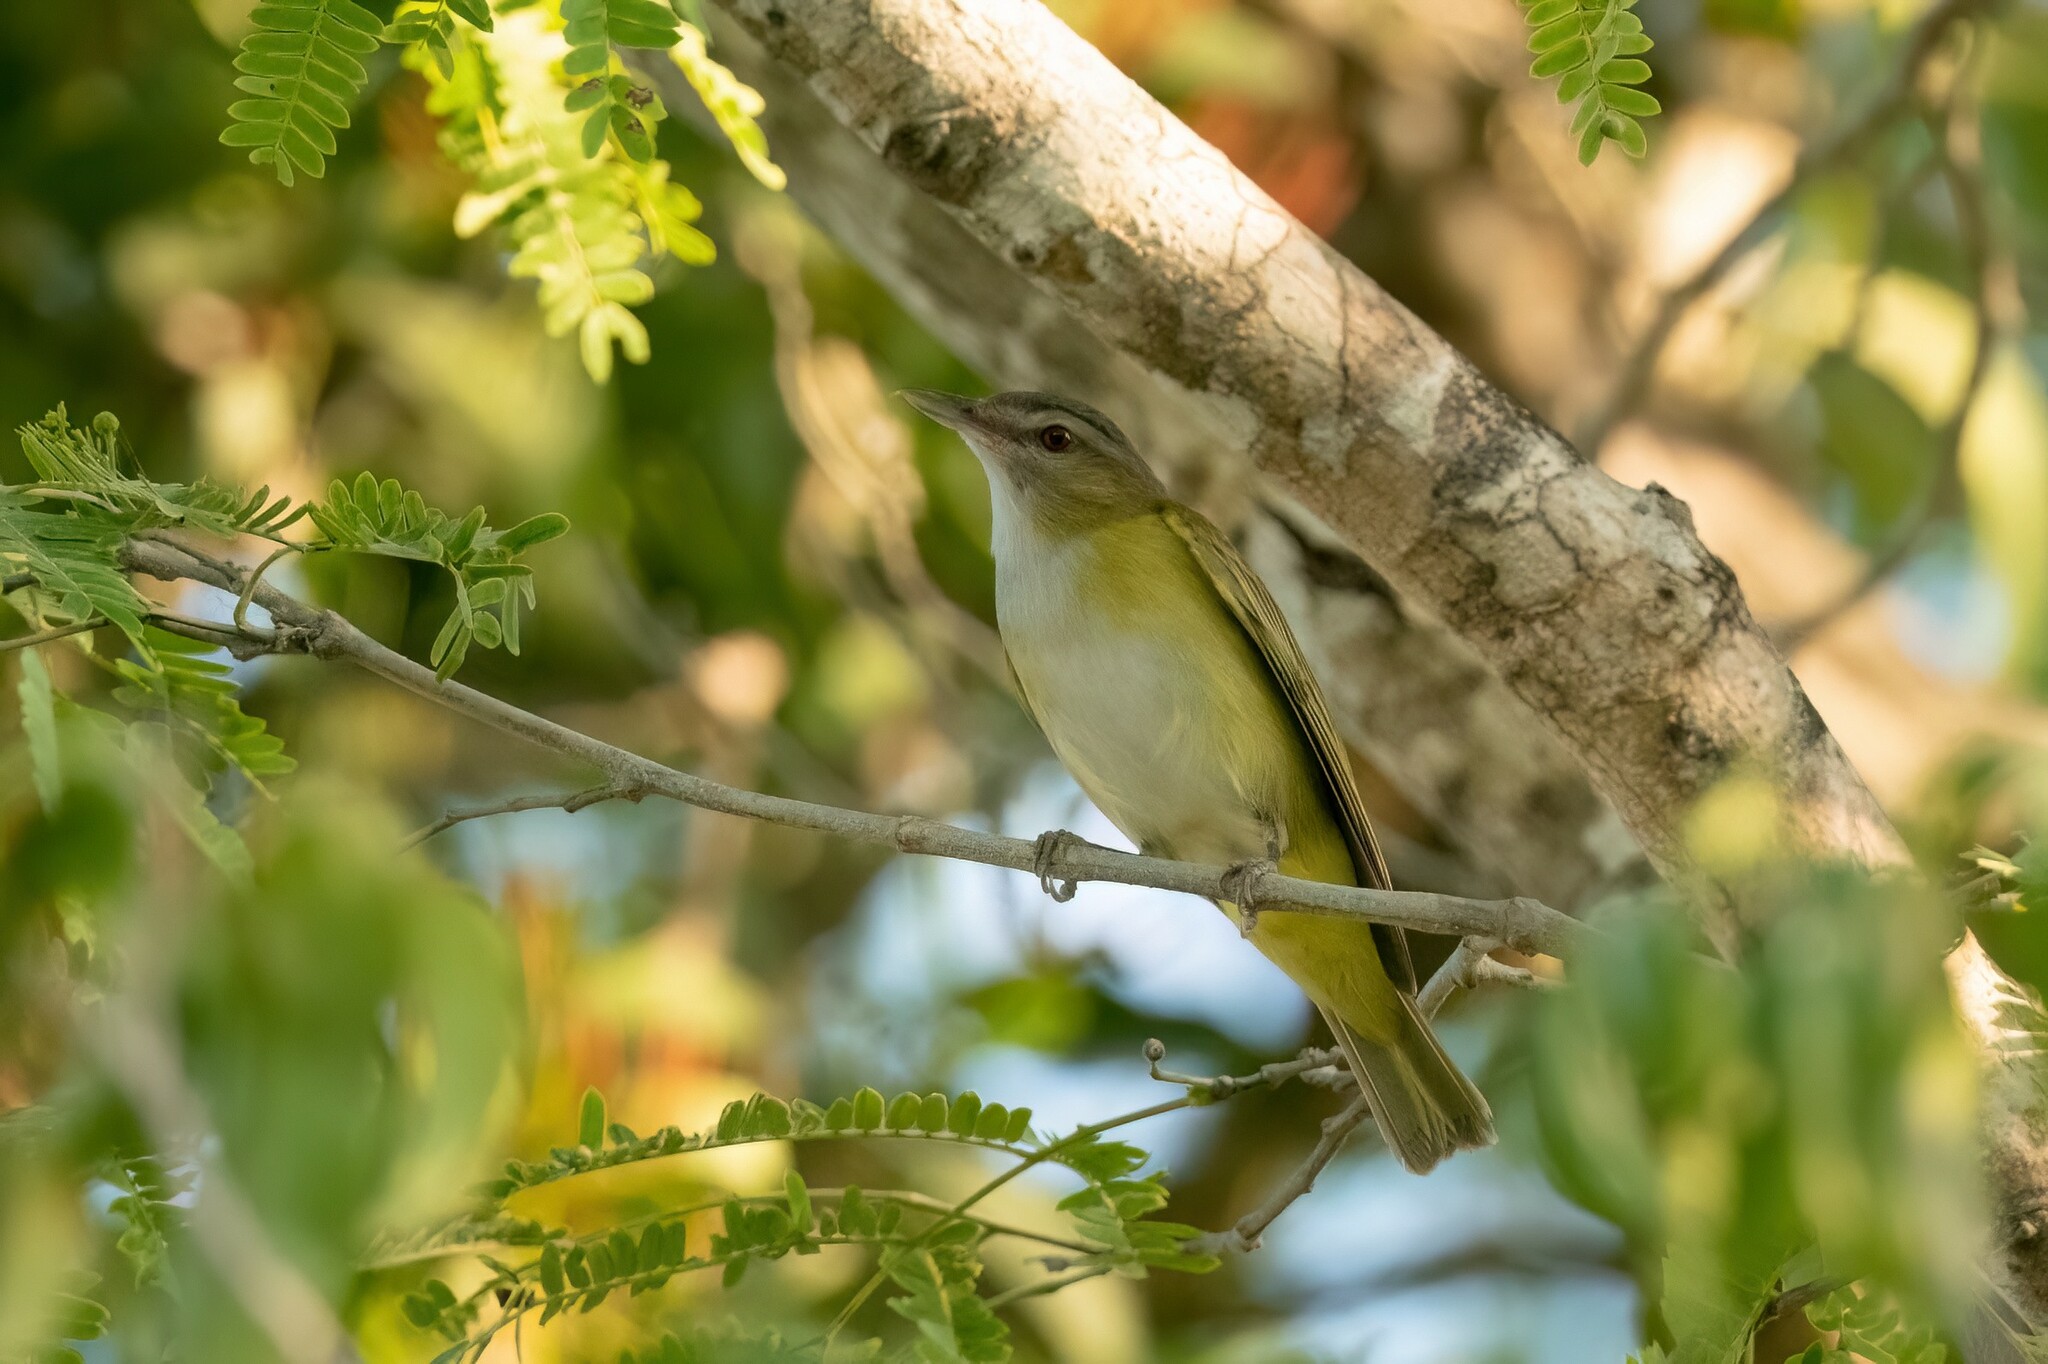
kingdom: Animalia
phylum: Chordata
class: Aves
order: Passeriformes
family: Vireonidae
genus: Vireo
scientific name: Vireo flavoviridis
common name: Yellow-green vireo
